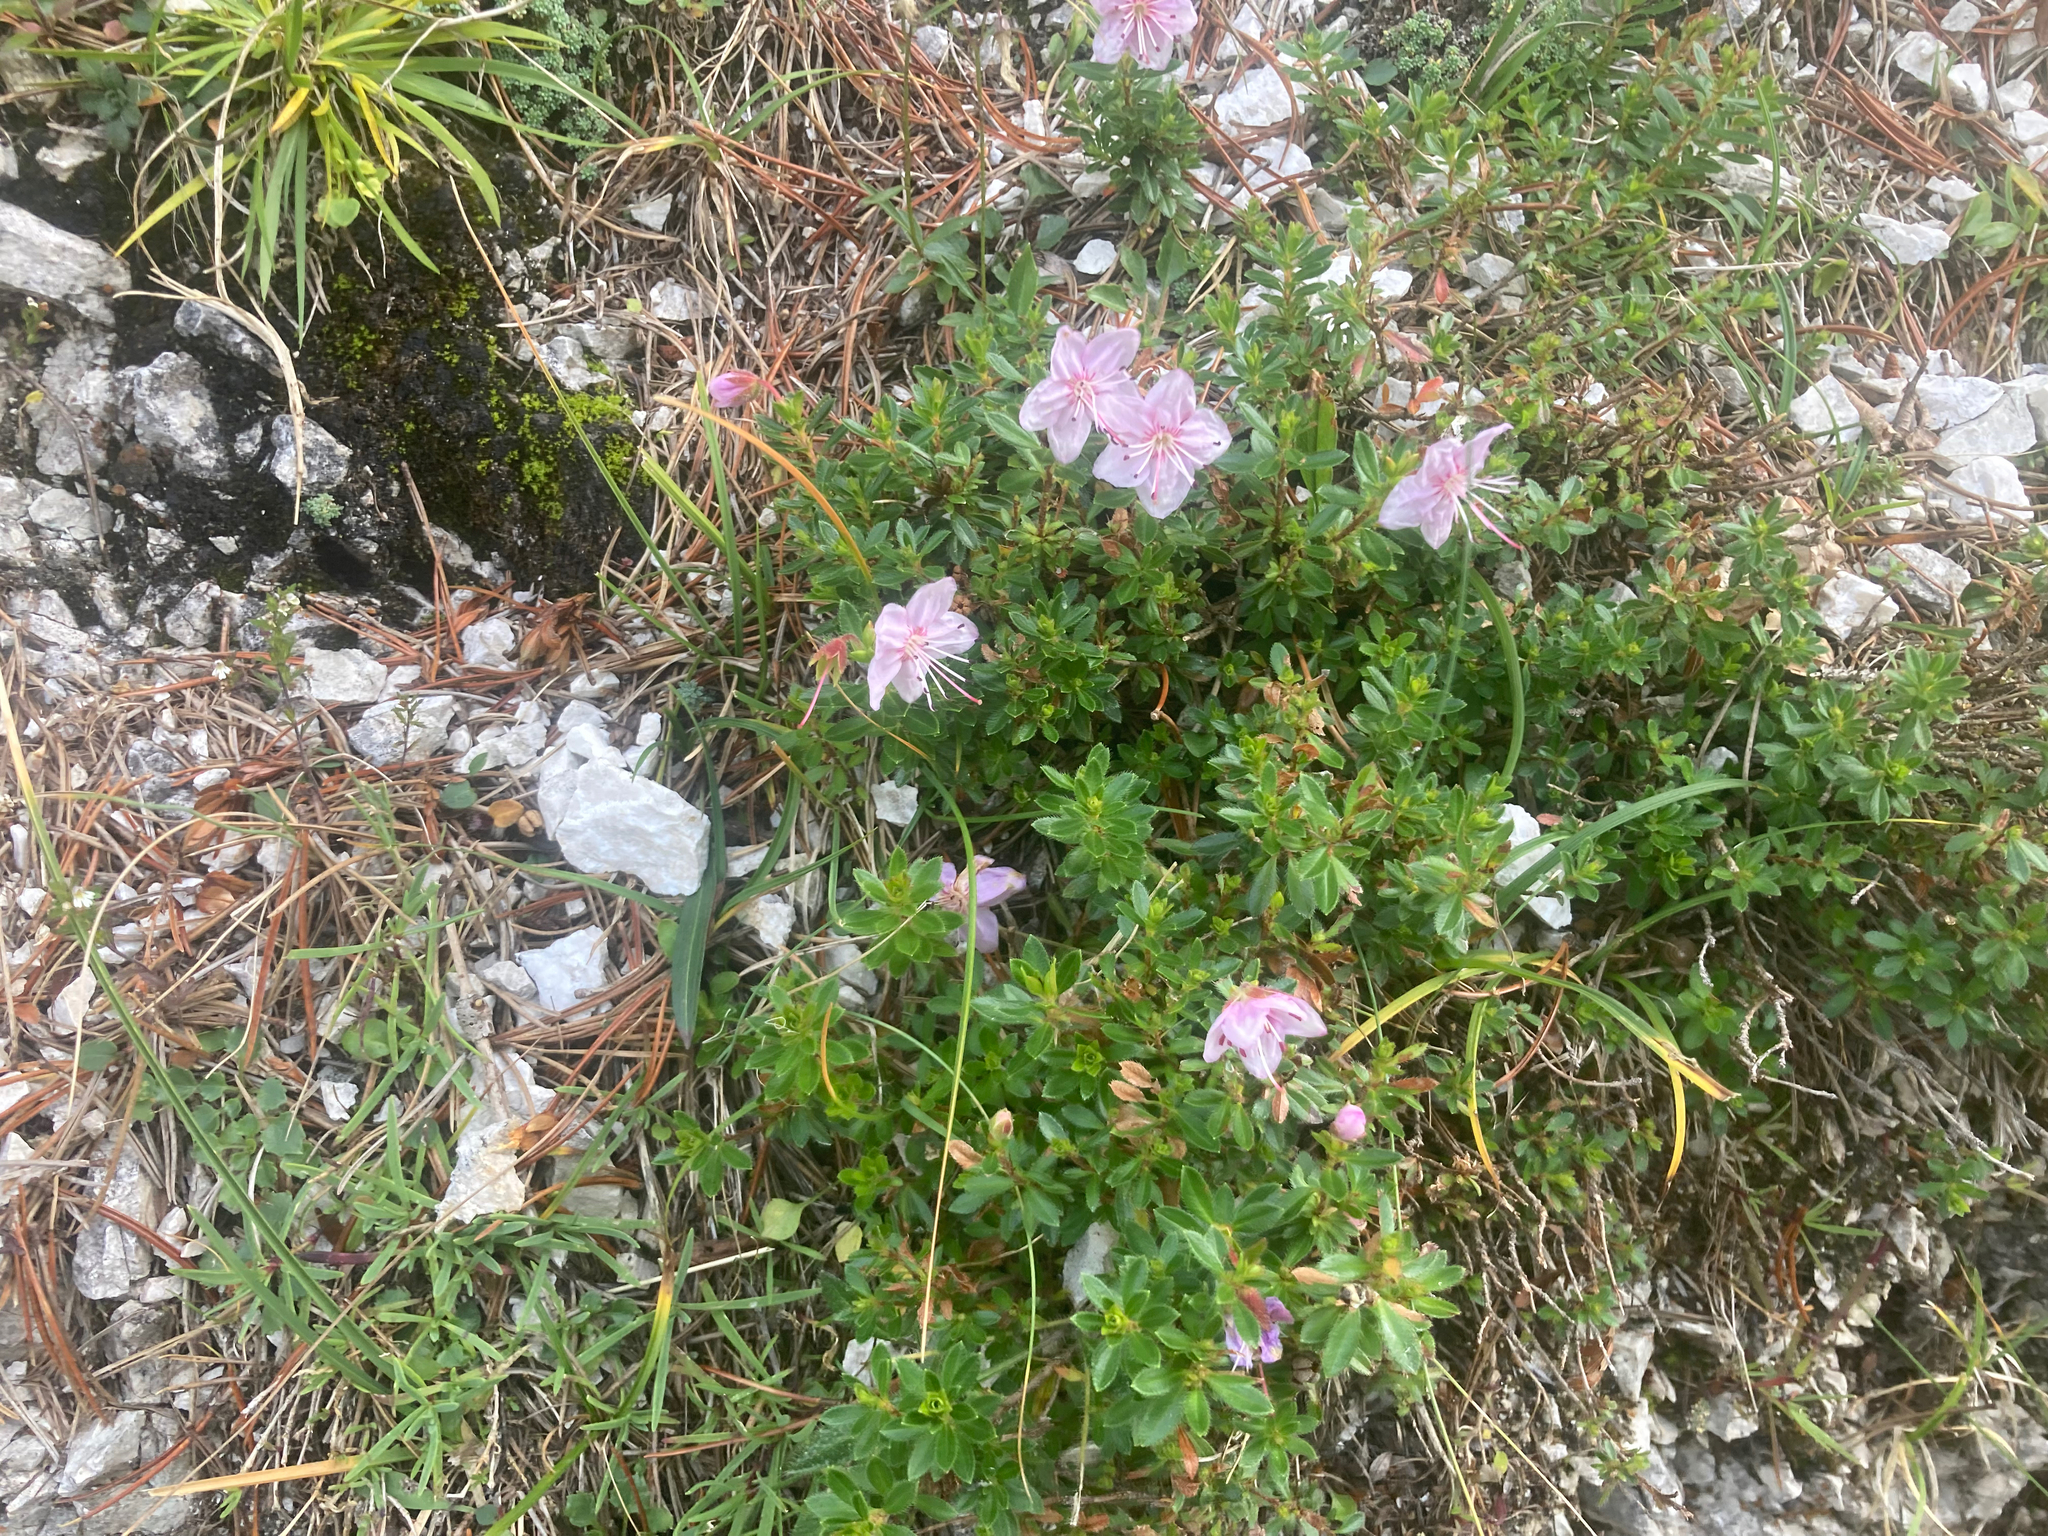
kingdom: Plantae
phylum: Tracheophyta
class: Magnoliopsida
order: Ericales
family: Ericaceae
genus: Rhodothamnus
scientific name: Rhodothamnus chamaecistus
